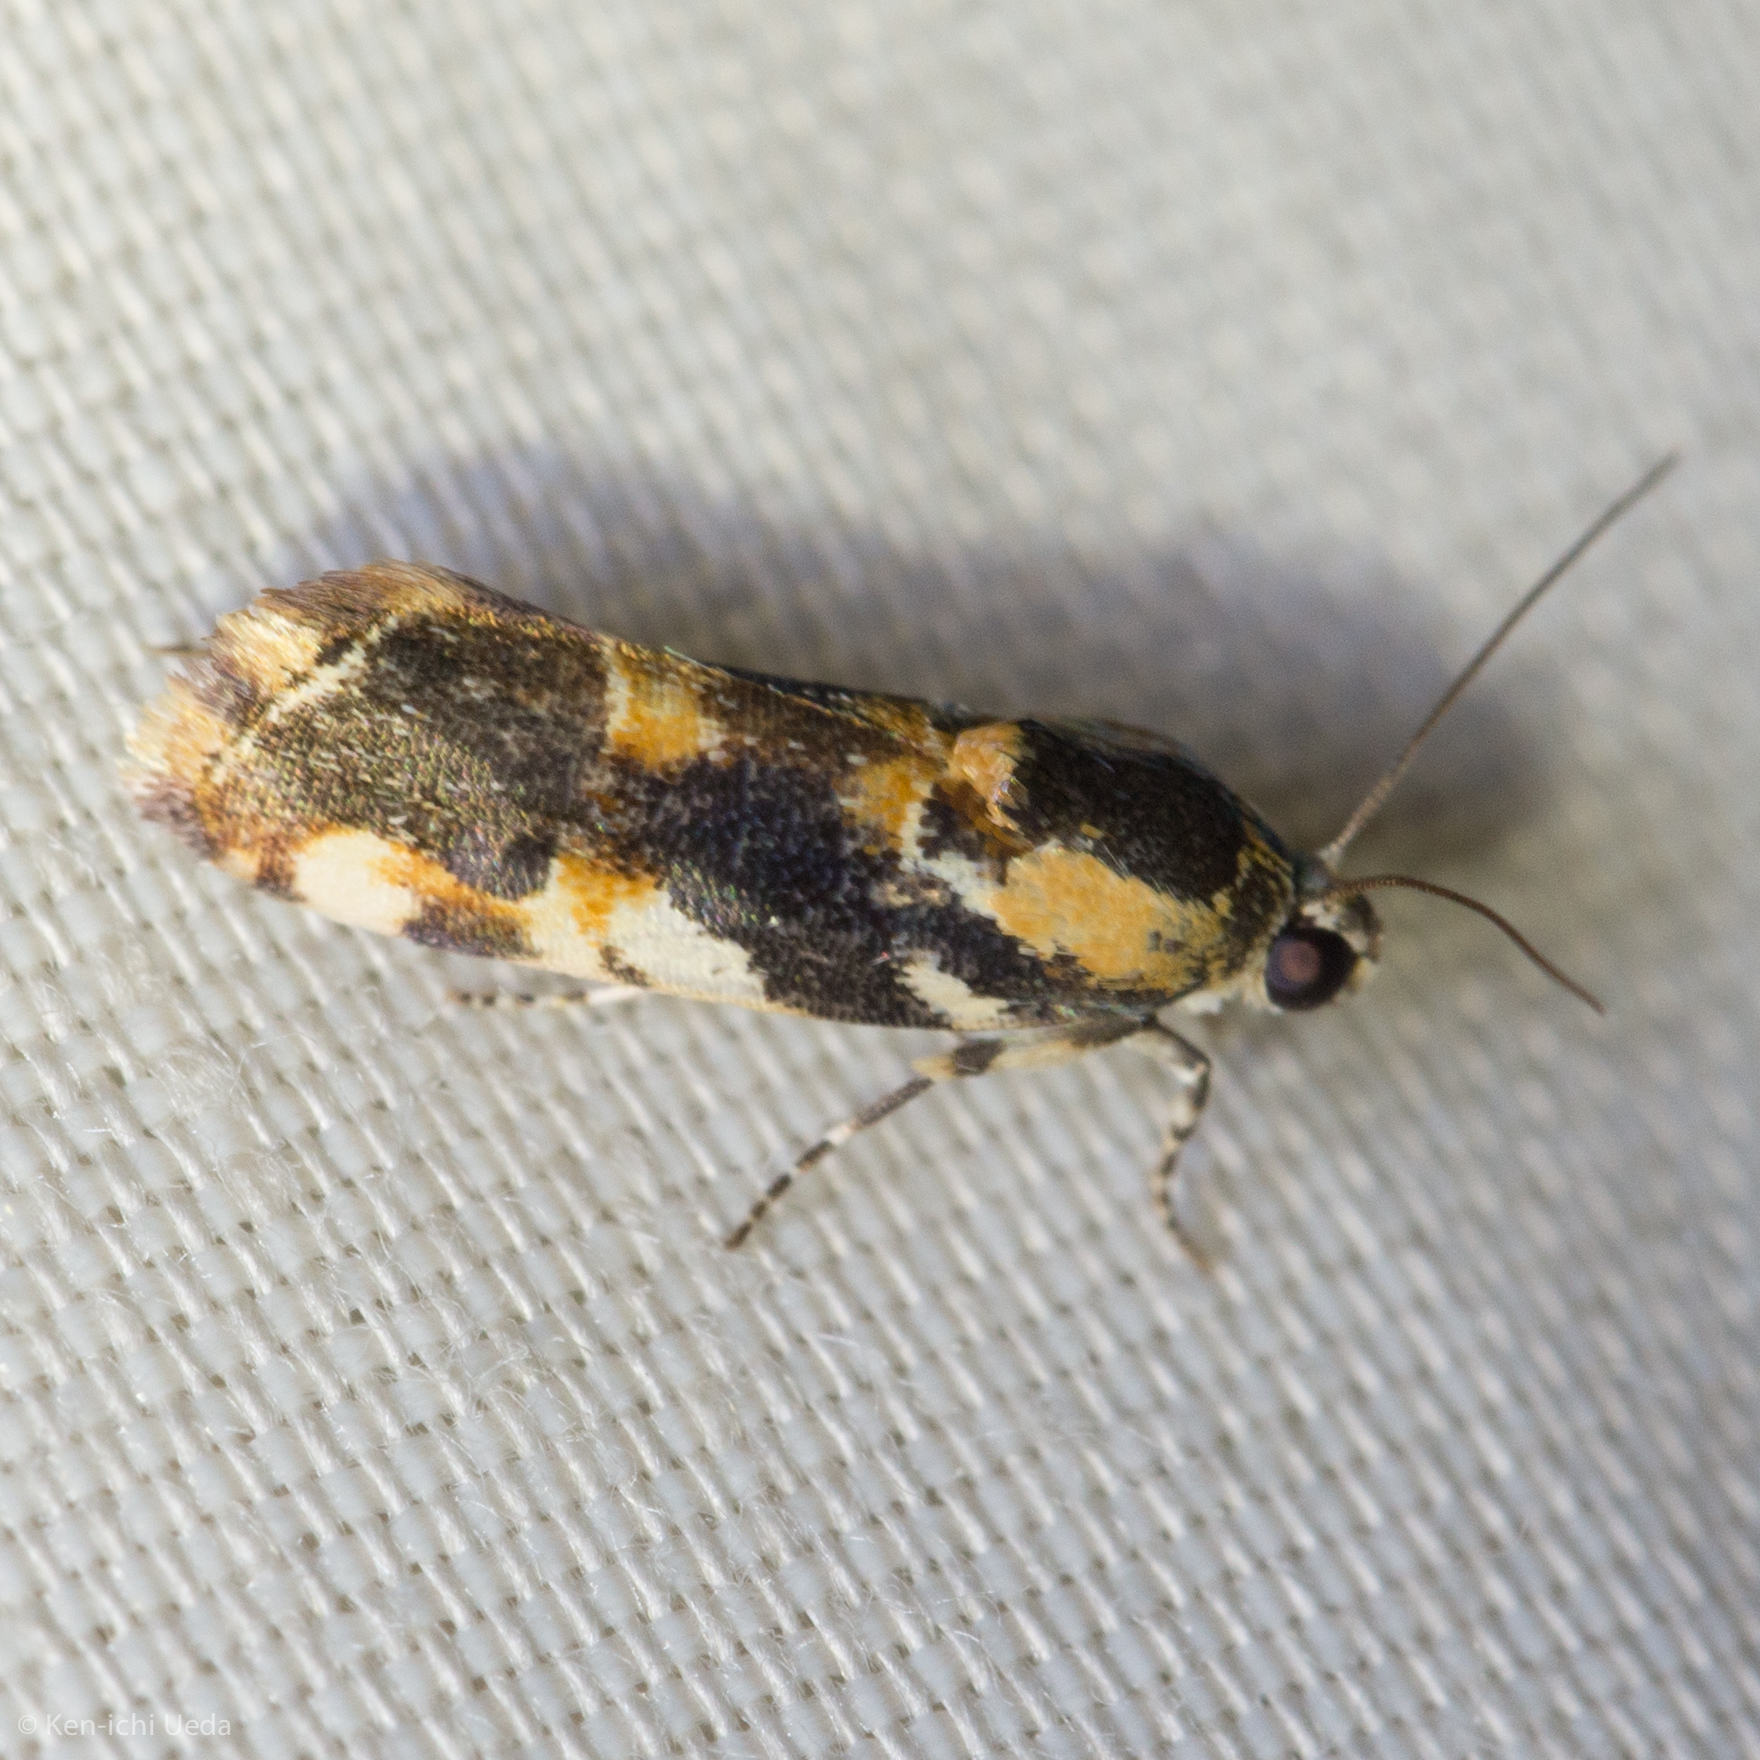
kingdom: Animalia
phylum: Arthropoda
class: Insecta
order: Lepidoptera
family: Noctuidae
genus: Spragueia
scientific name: Spragueia jaguaralis
